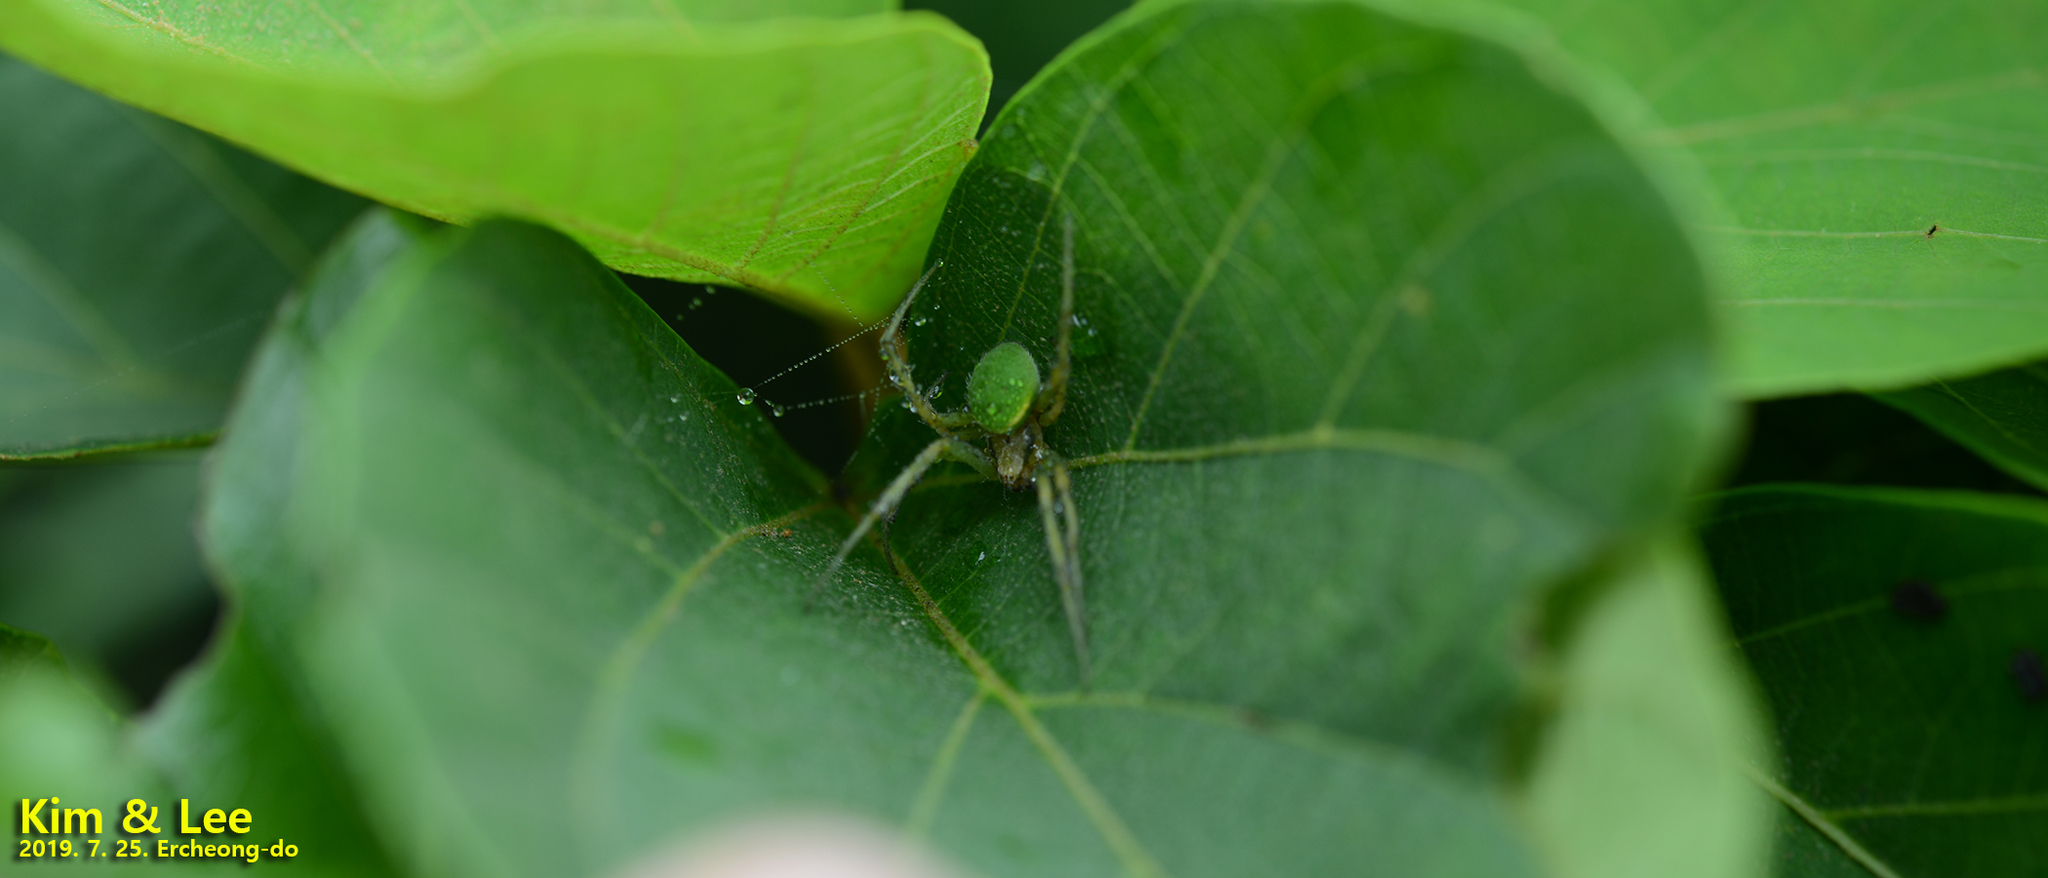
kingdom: Animalia
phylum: Arthropoda
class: Arachnida
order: Araneae
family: Araneidae
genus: Neoscona
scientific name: Neoscona scylloides
